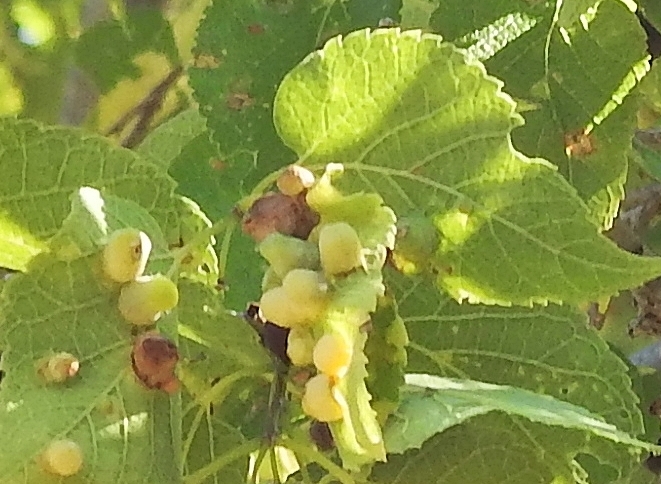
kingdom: Animalia
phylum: Arthropoda
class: Insecta
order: Hemiptera
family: Aphalaridae
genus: Pachypsylla
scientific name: Pachypsylla celtidismamma
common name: Hackberry nipplegall psyllid
